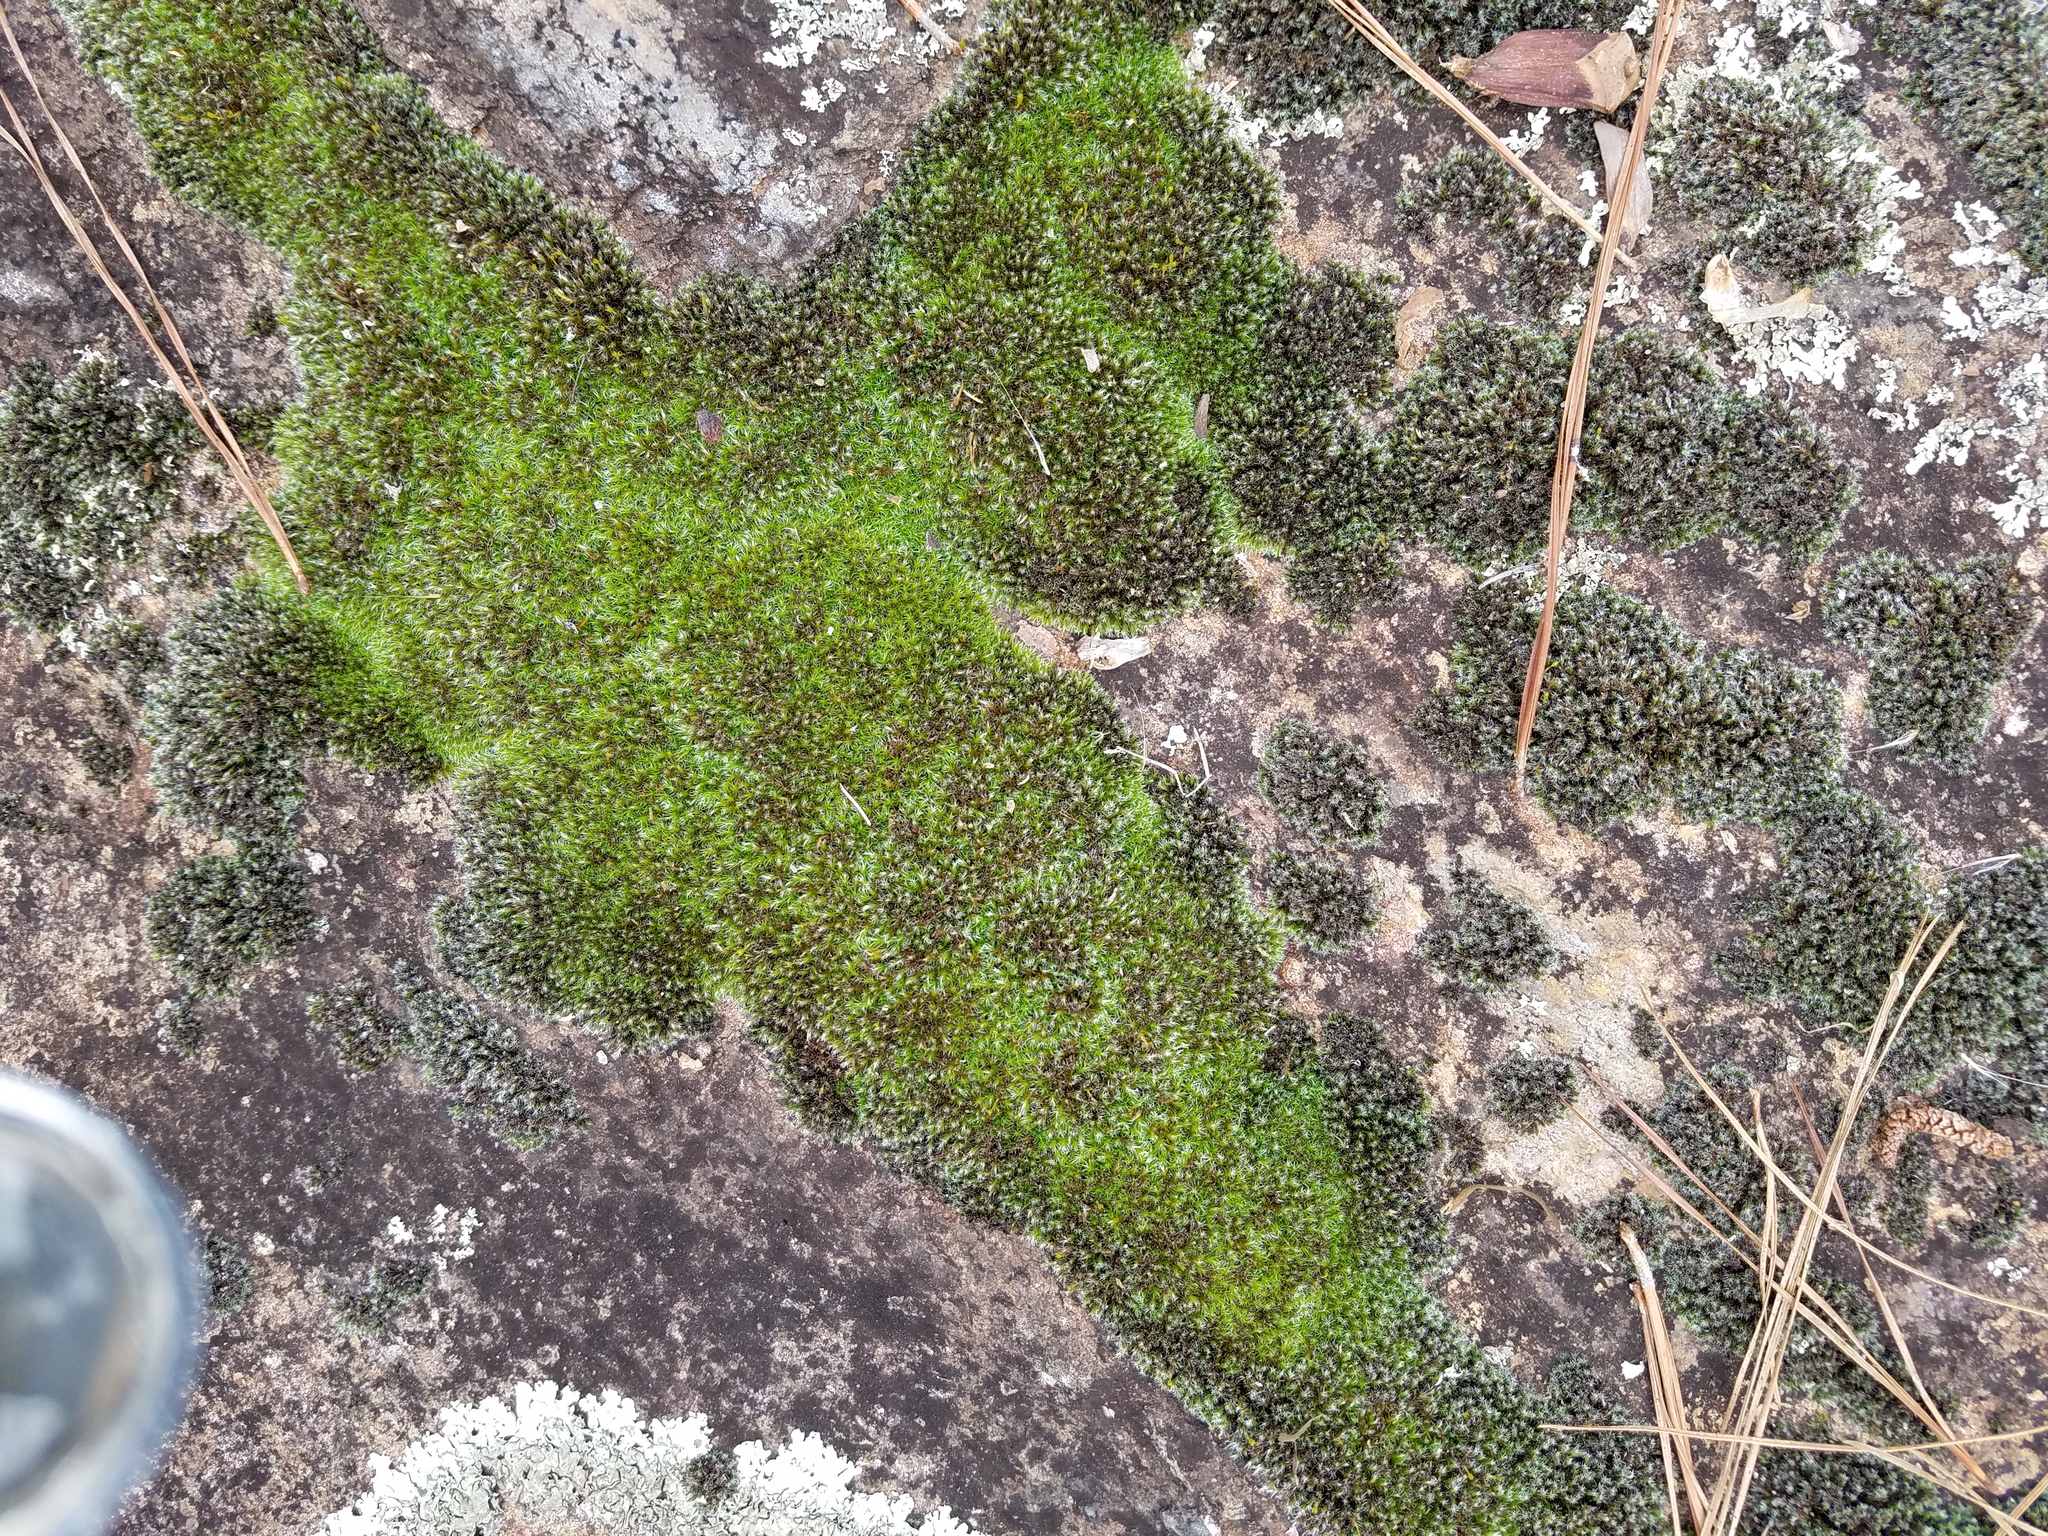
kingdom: Plantae
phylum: Bryophyta
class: Bryopsida
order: Grimmiales
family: Grimmiaceae
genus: Grimmia
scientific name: Grimmia laevigata
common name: Hoary grimmia
